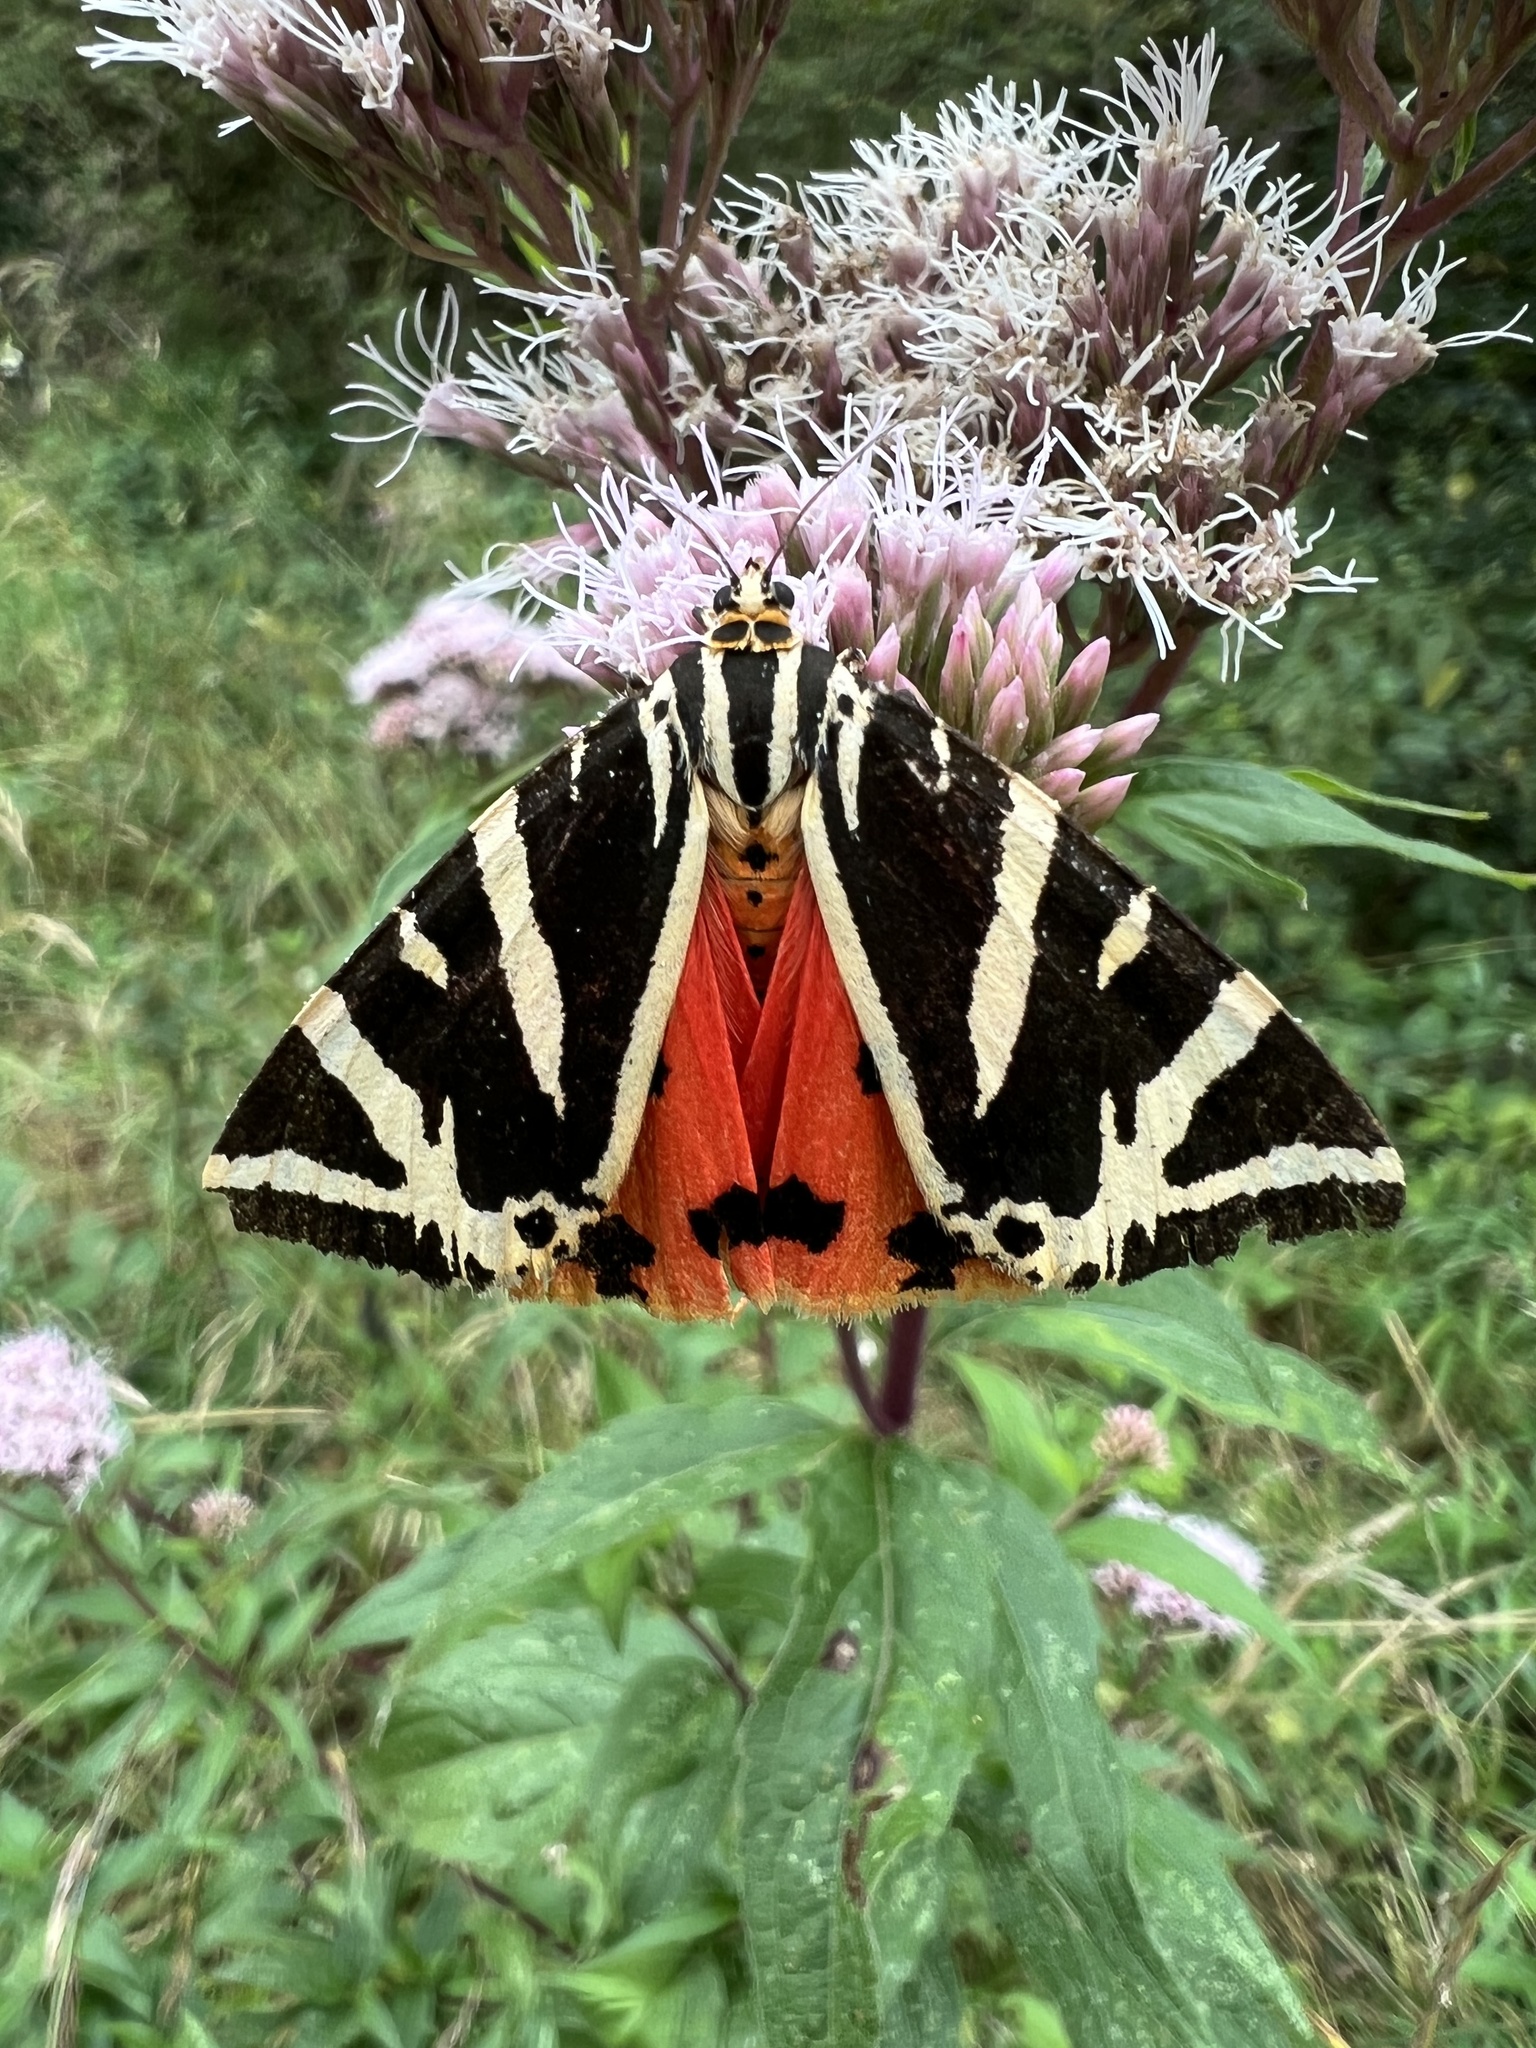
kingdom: Animalia
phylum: Arthropoda
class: Insecta
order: Lepidoptera
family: Erebidae
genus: Euplagia
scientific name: Euplagia quadripunctaria
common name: Jersey tiger
